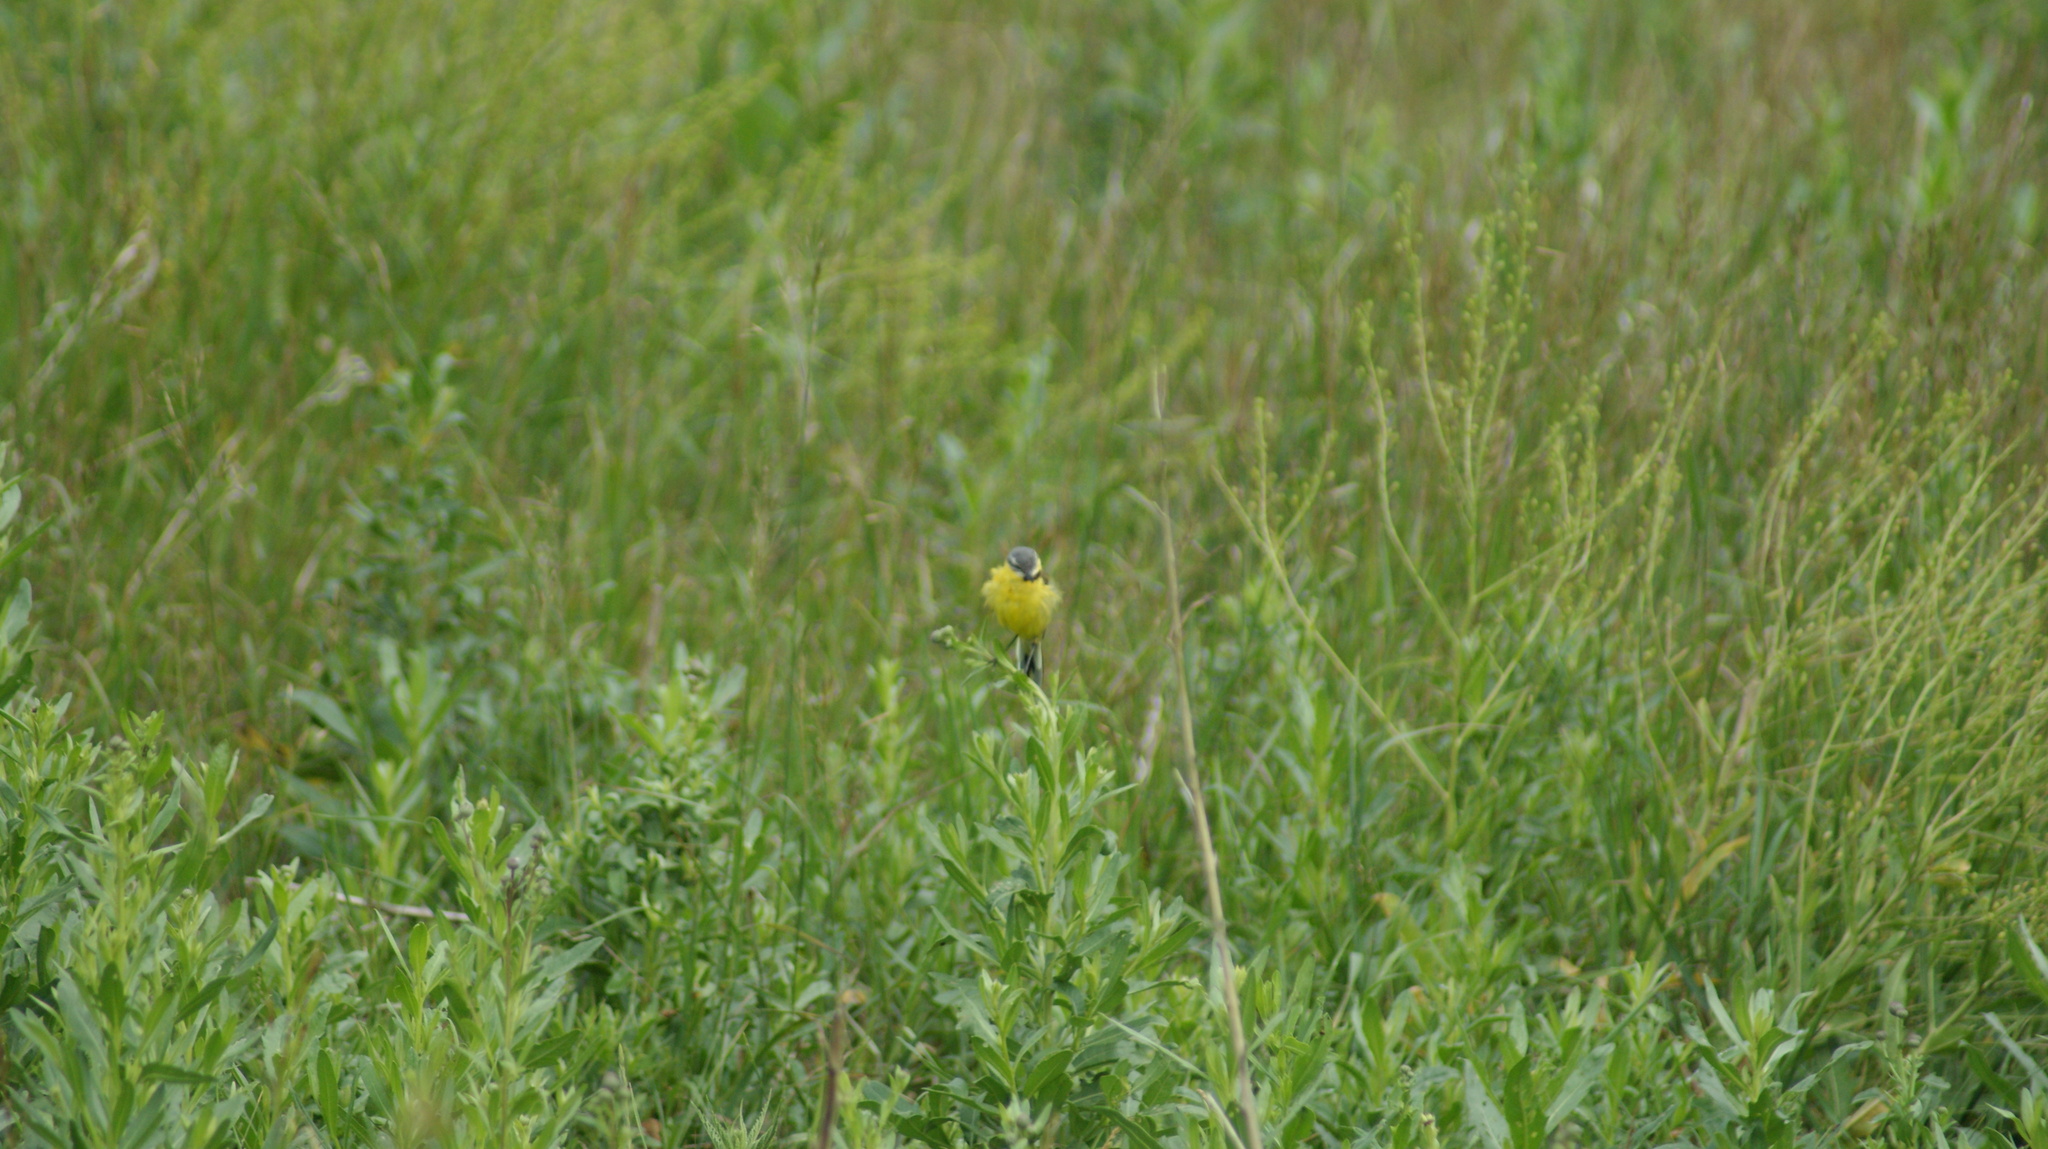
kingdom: Animalia
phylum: Chordata
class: Aves
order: Passeriformes
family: Motacillidae
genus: Motacilla
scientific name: Motacilla flava
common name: Western yellow wagtail
